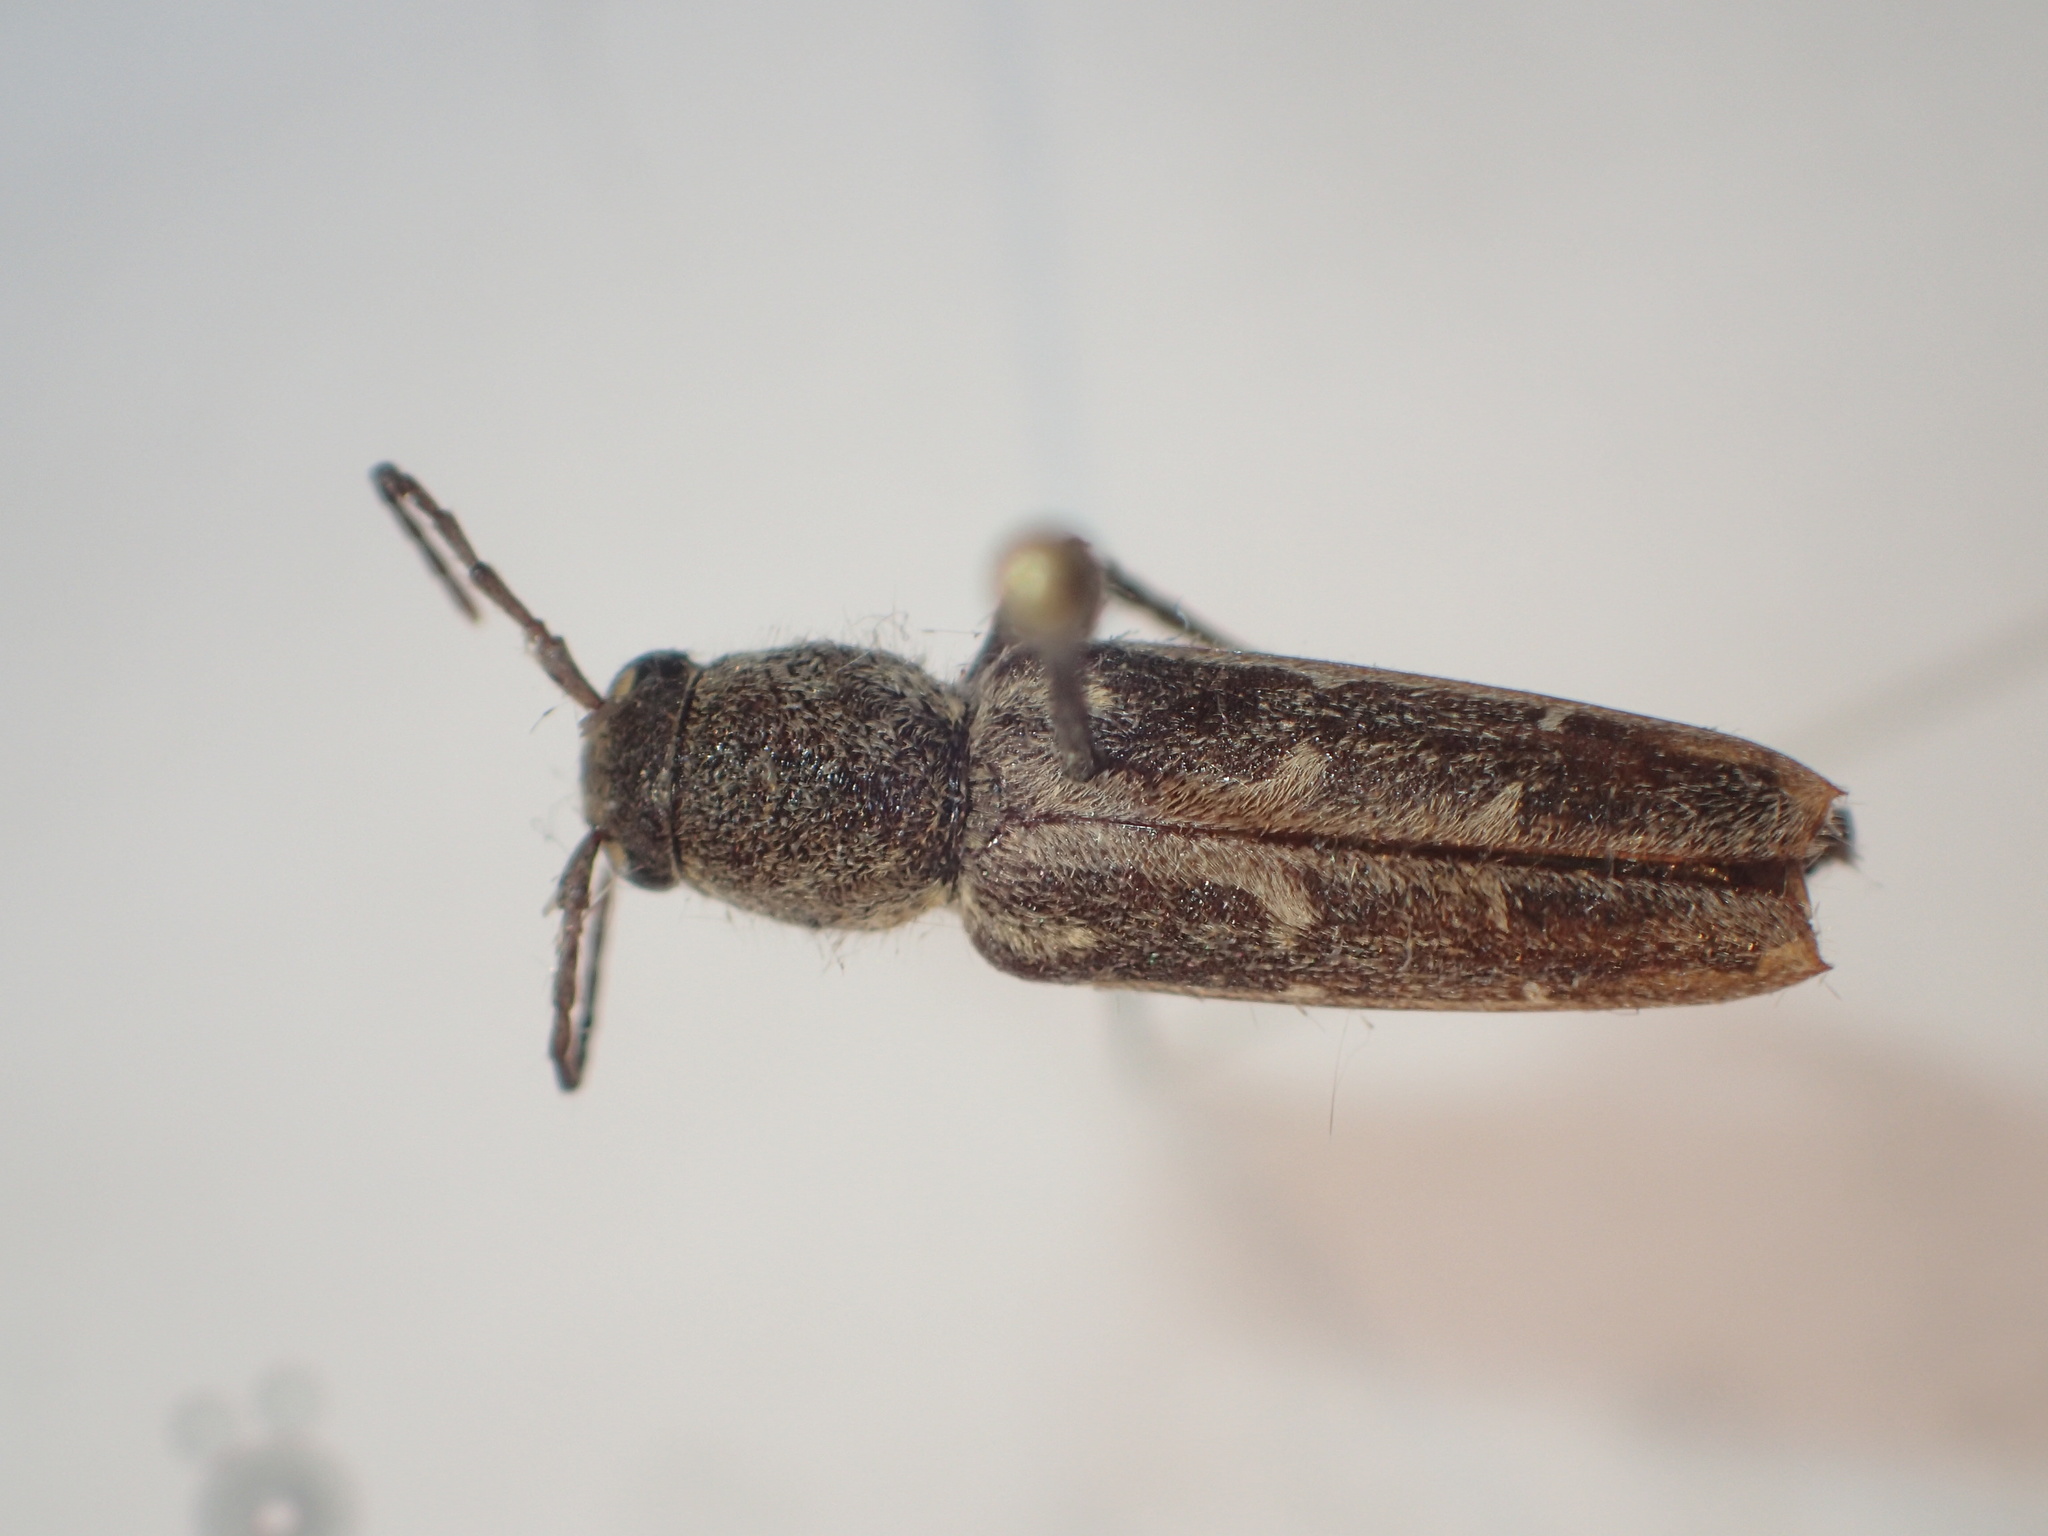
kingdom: Animalia
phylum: Arthropoda
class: Insecta
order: Coleoptera
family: Cerambycidae
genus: Xylotrechus
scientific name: Xylotrechus sagittatus
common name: Arrowhead borer
